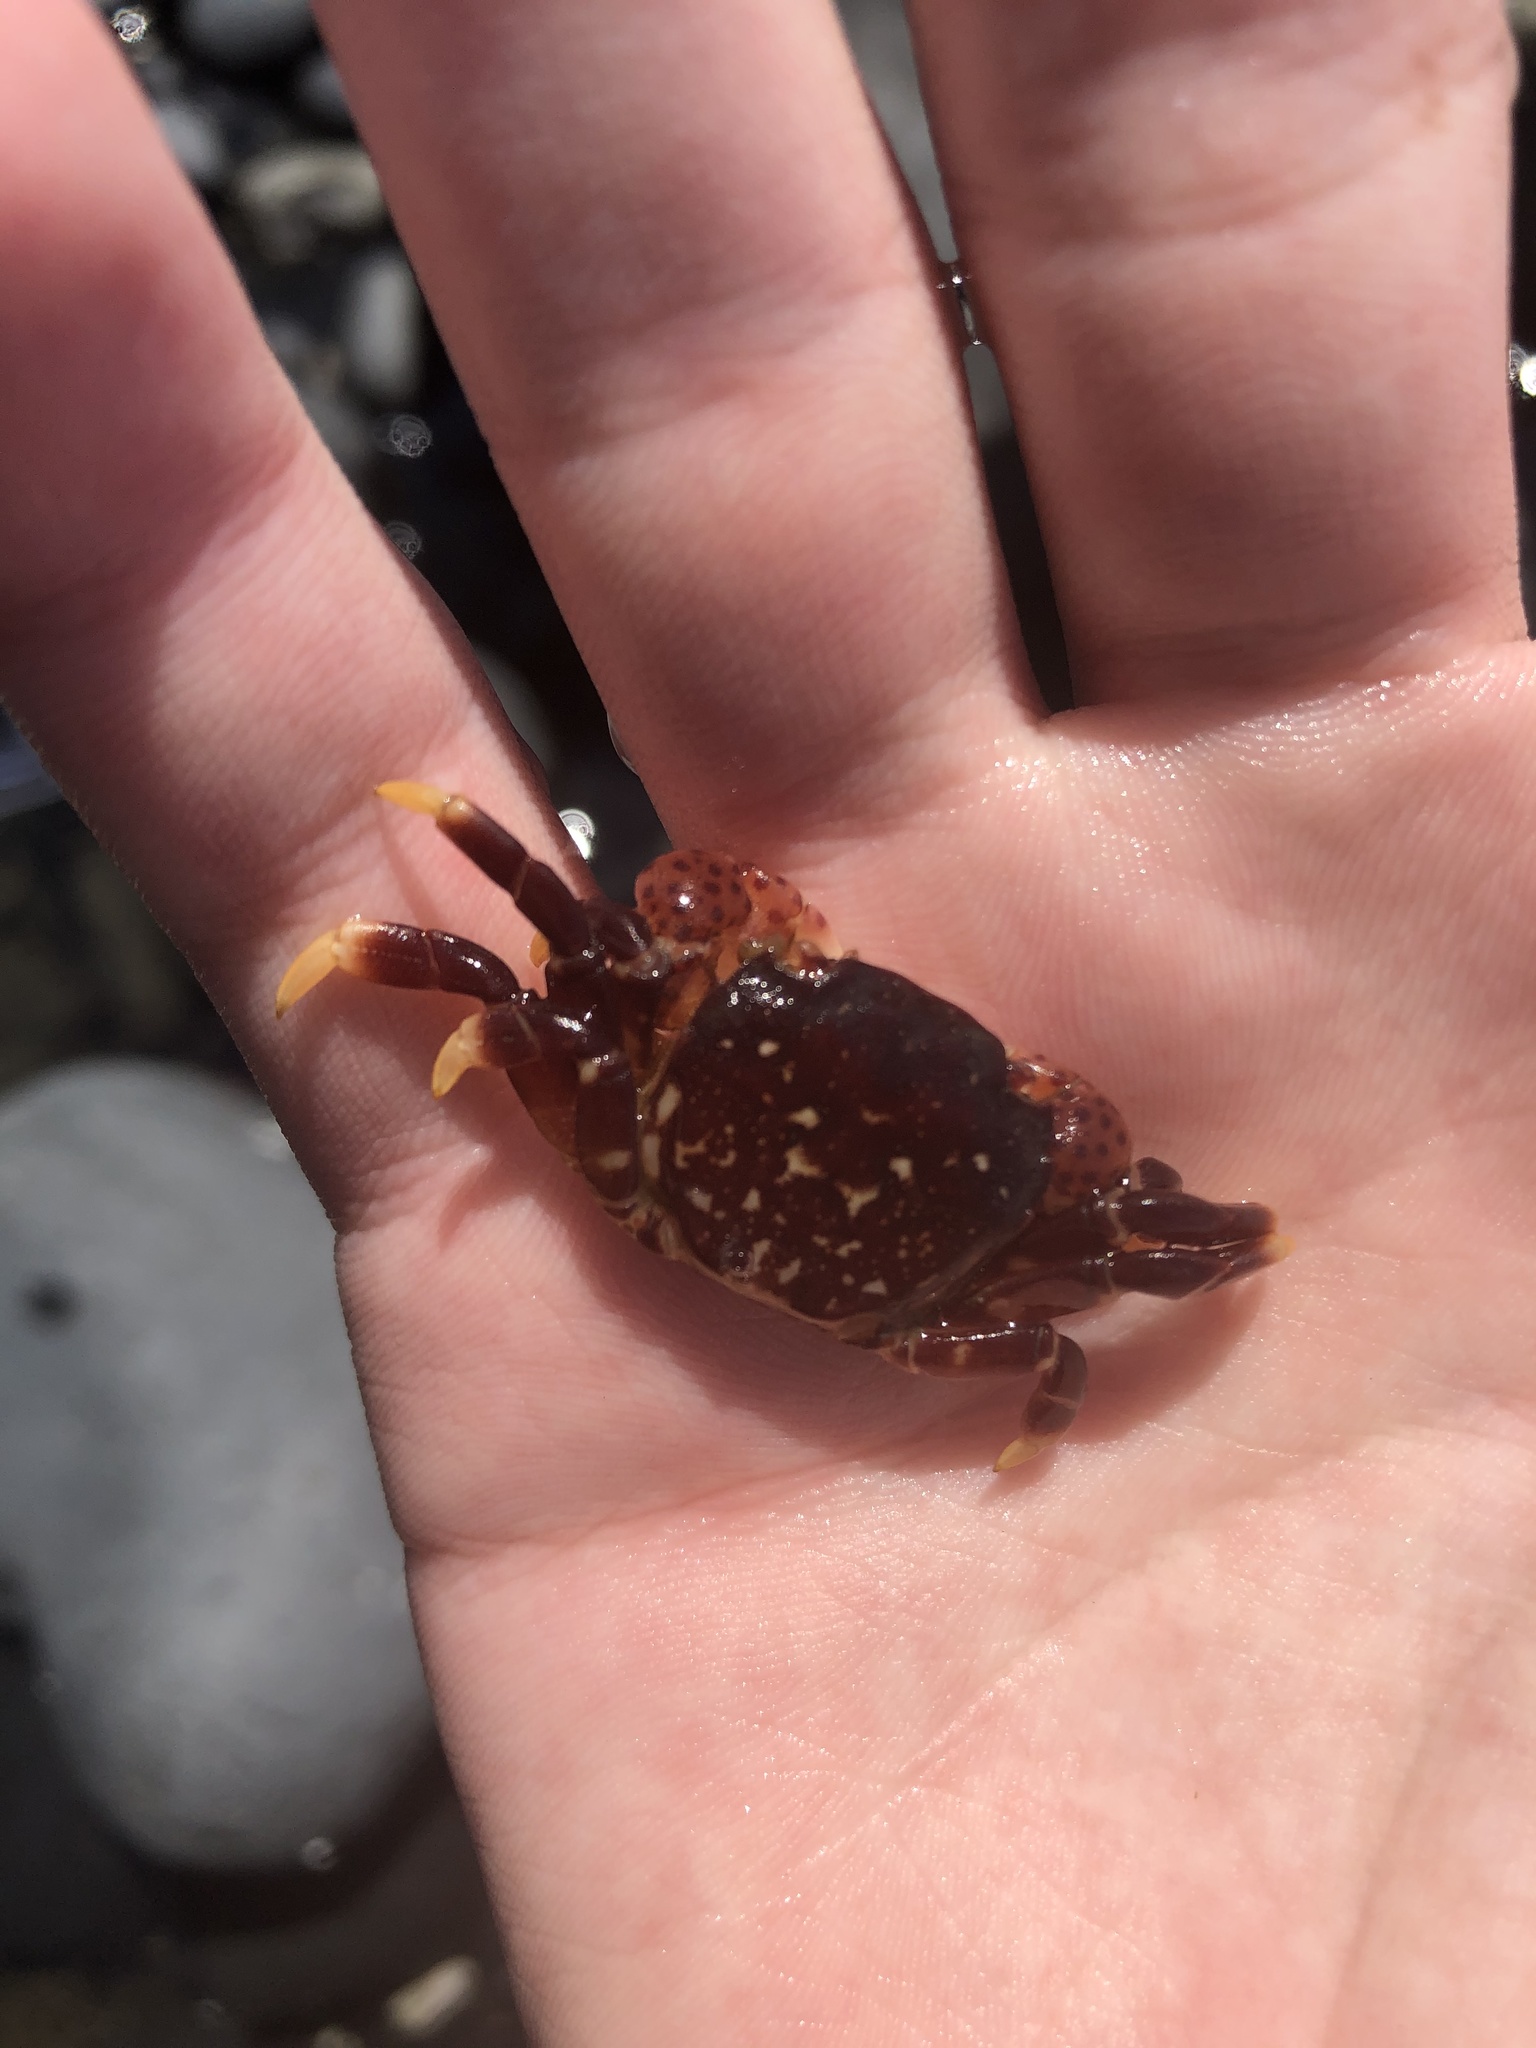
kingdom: Animalia
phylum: Arthropoda
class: Malacostraca
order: Decapoda
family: Varunidae
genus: Hemigrapsus
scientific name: Hemigrapsus nudus
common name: Purple shore crab
